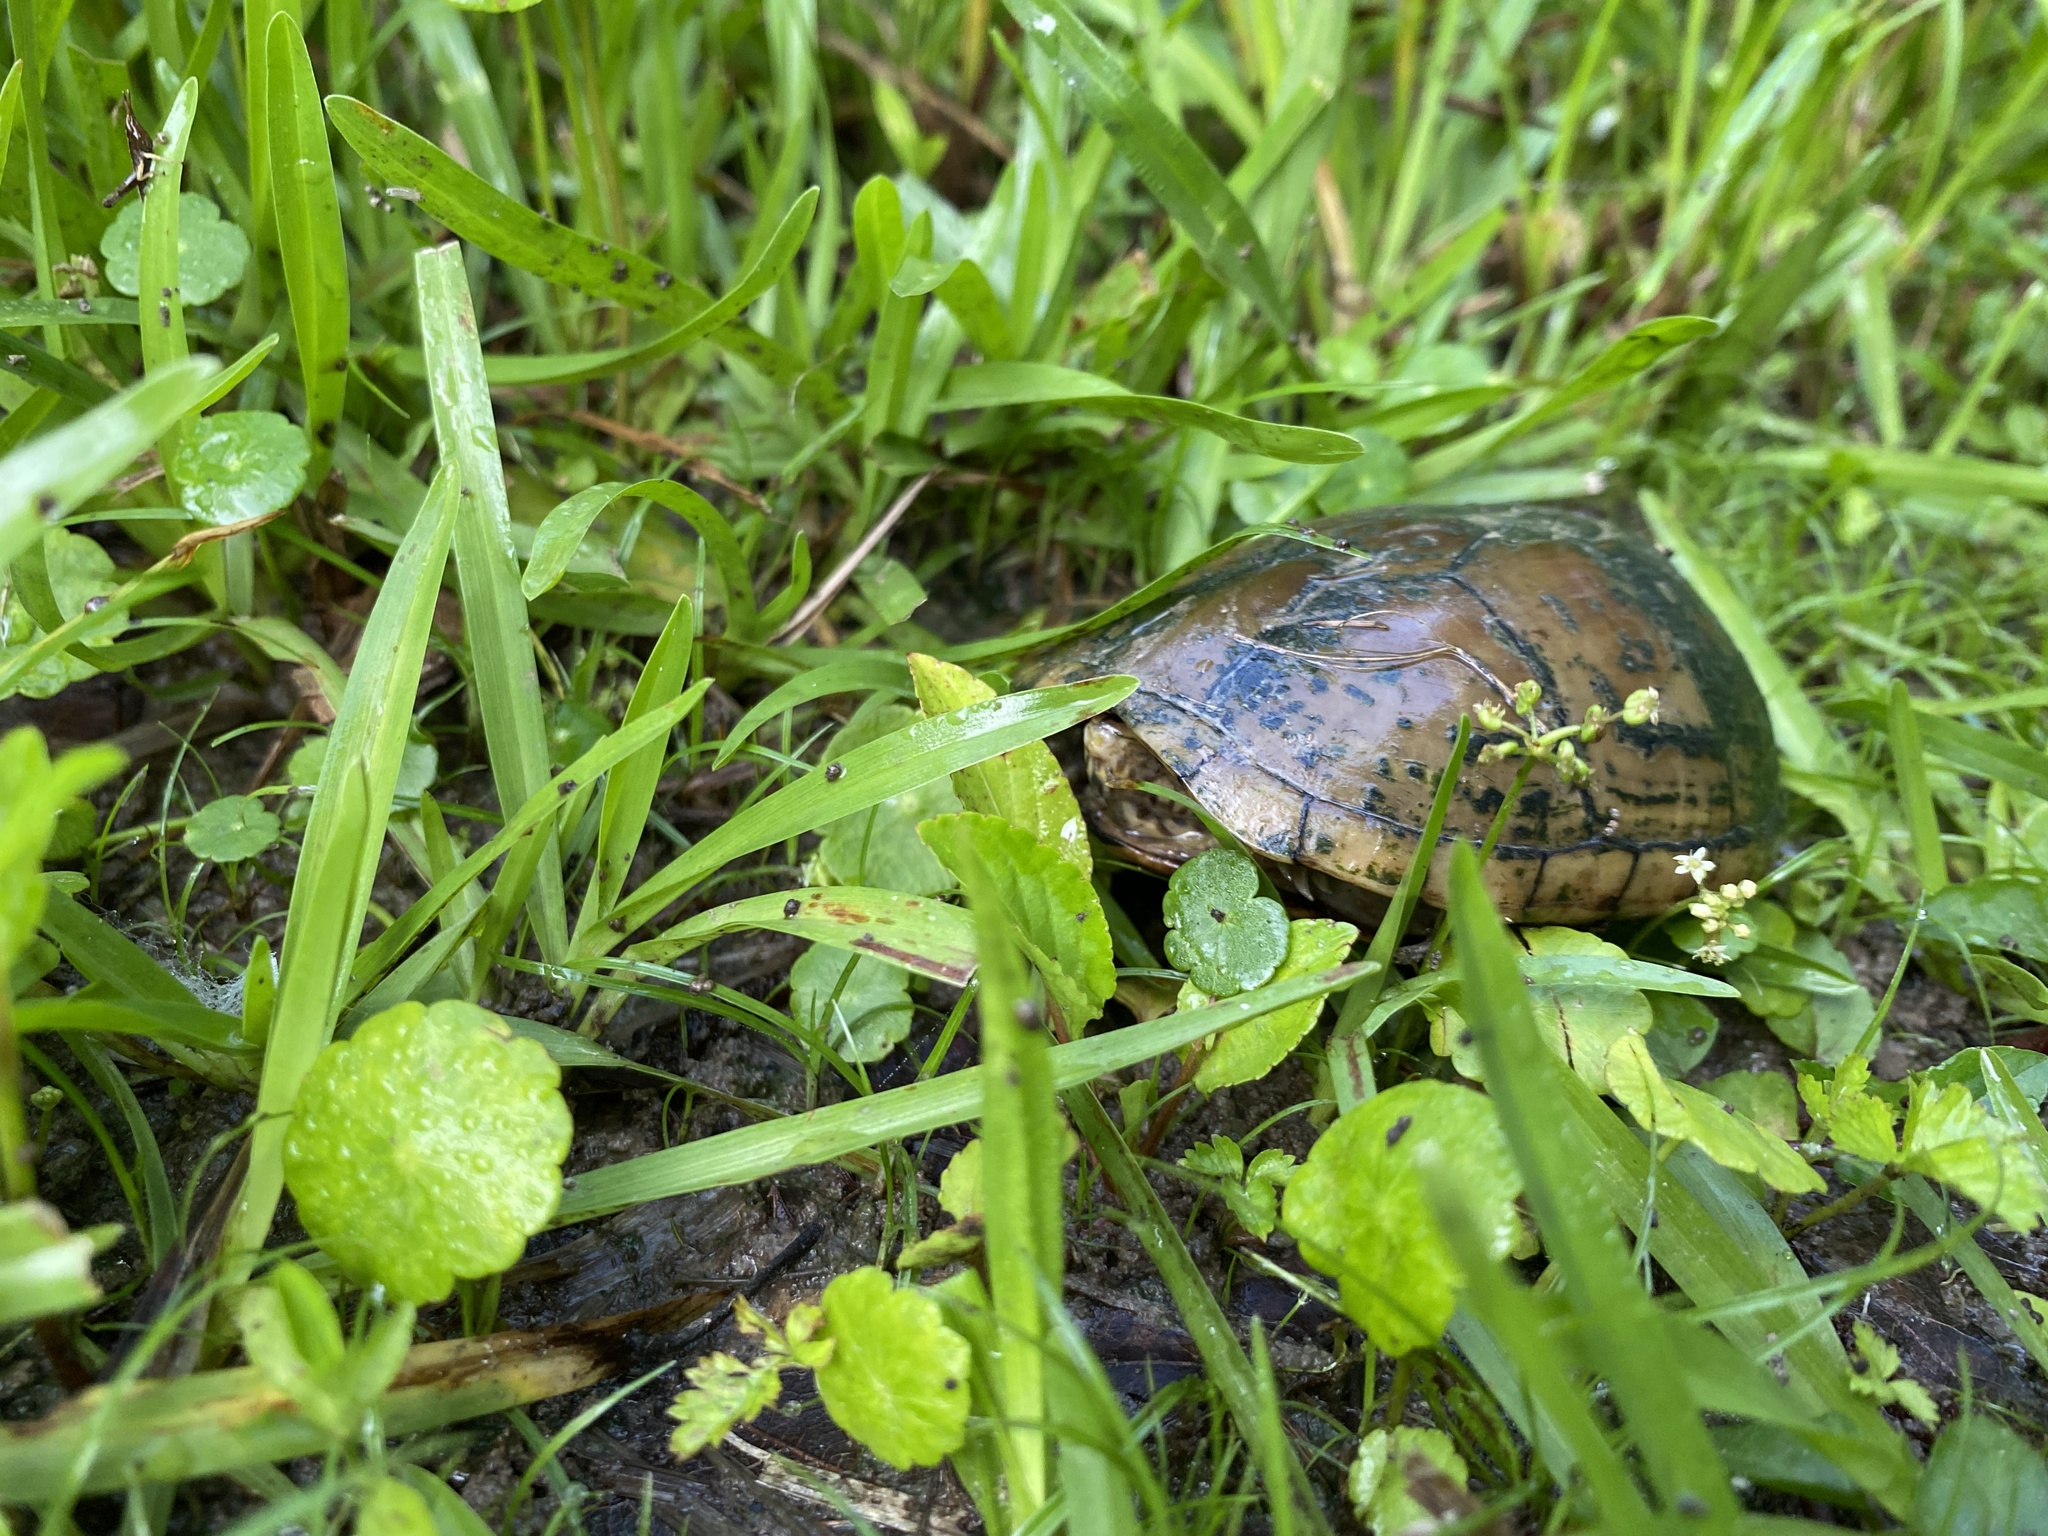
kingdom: Animalia
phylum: Chordata
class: Testudines
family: Kinosternidae
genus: Kinosternon
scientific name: Kinosternon subrubrum
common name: Eastern mud turtle
